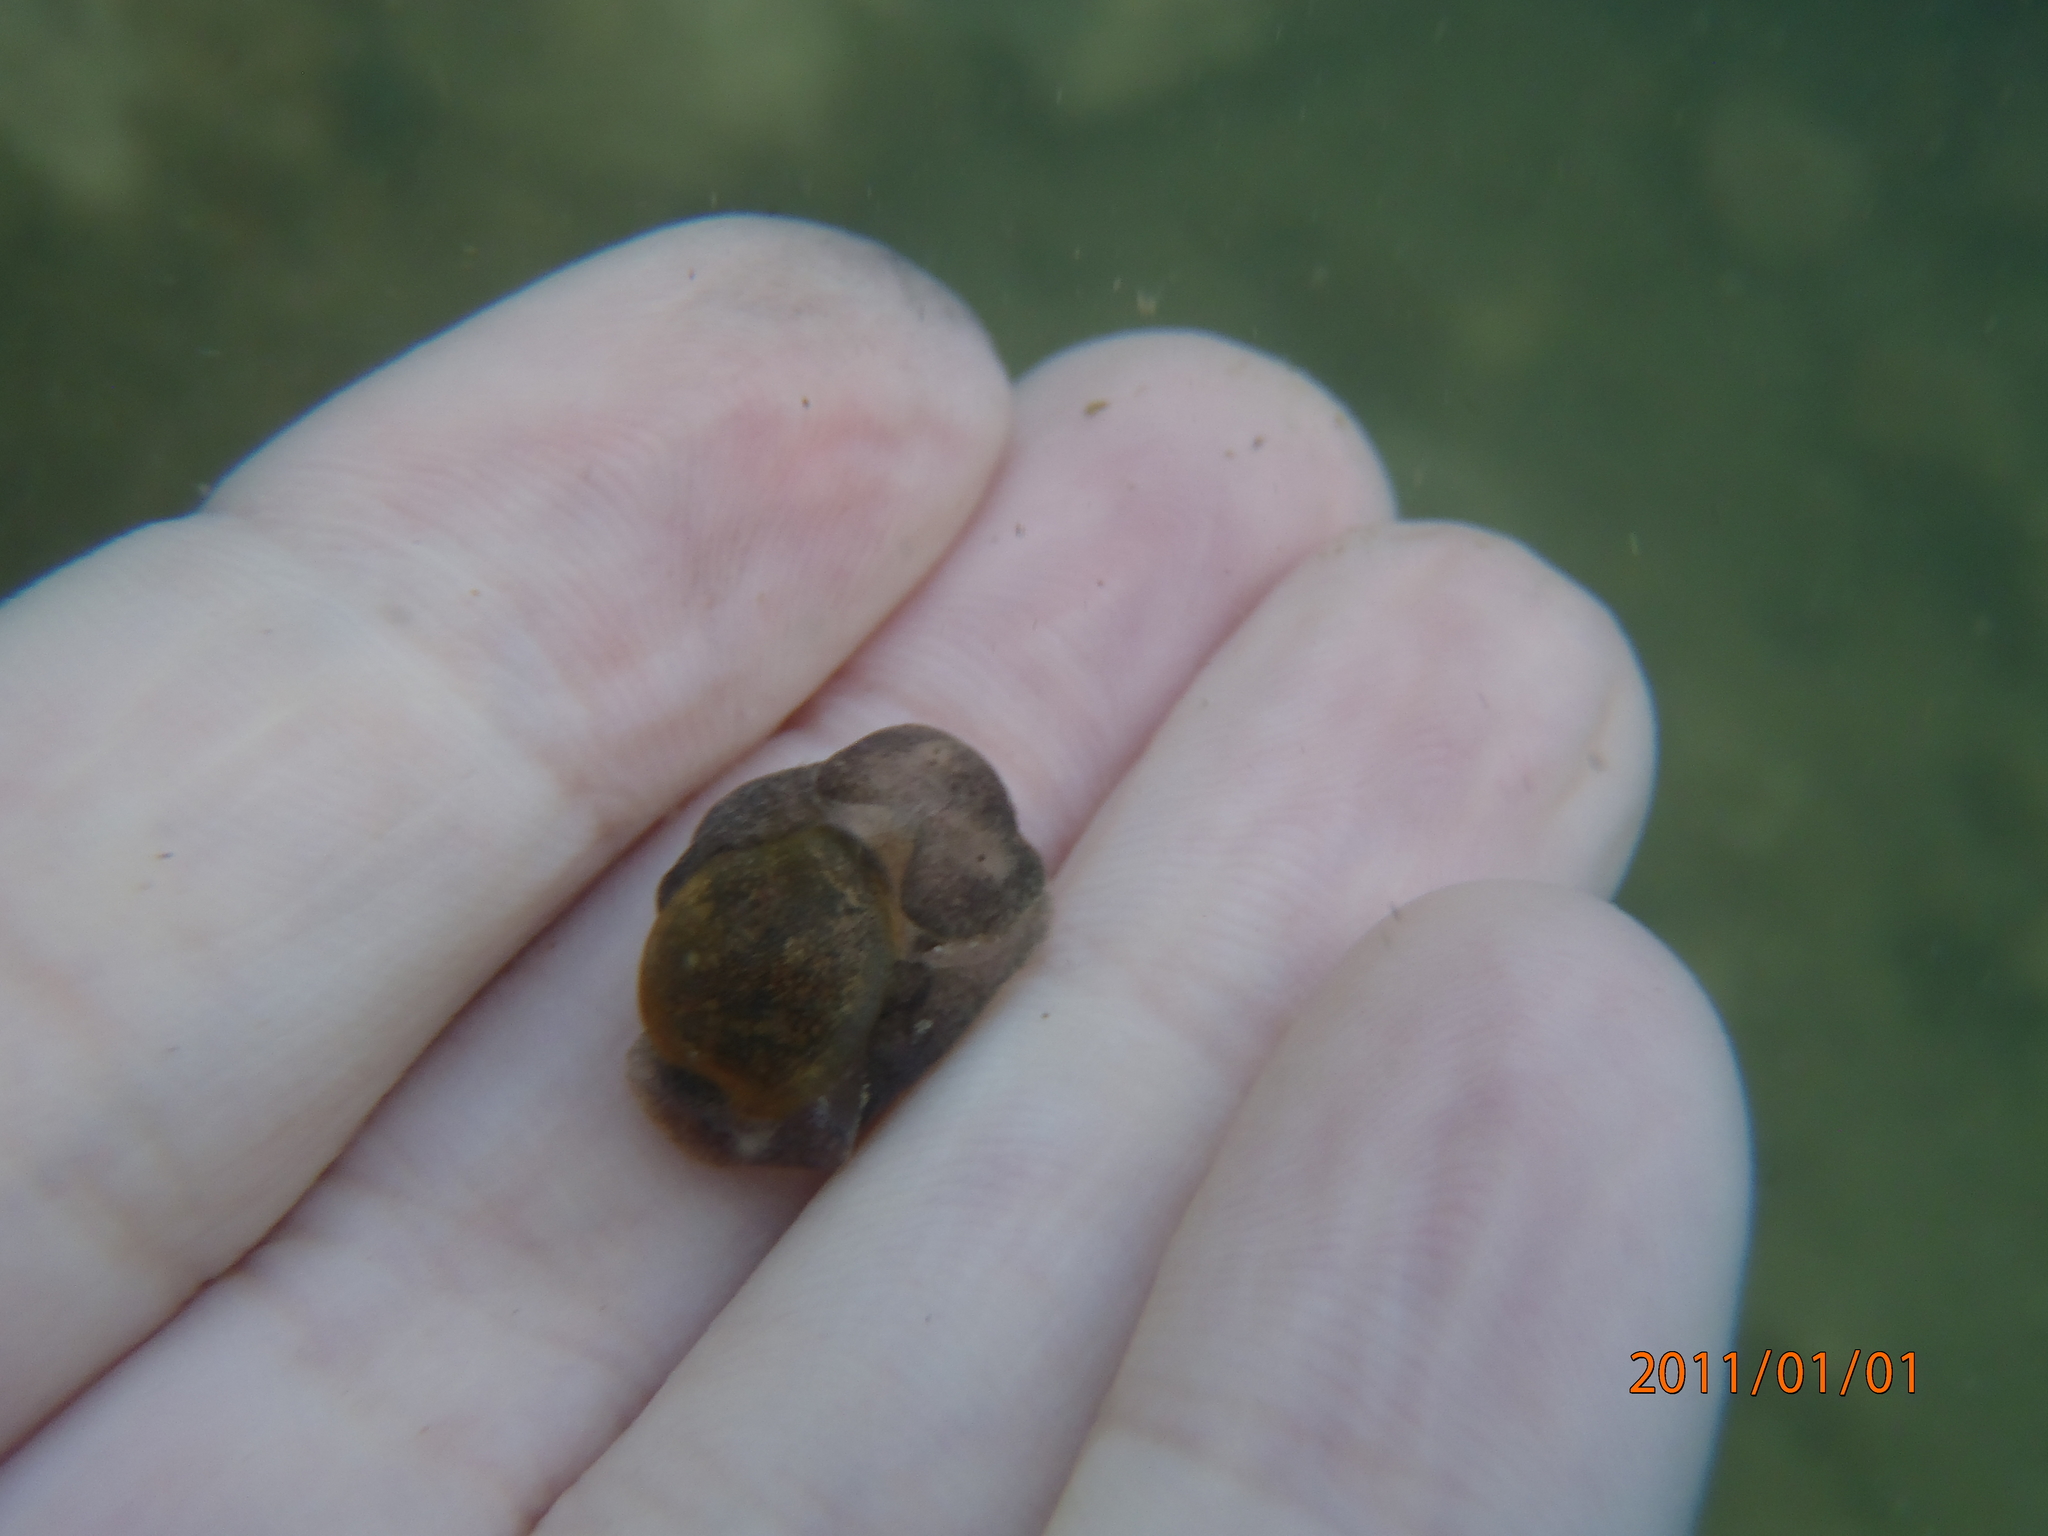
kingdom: Animalia
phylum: Mollusca
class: Gastropoda
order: Cephalaspidea
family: Haminoeidae
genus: Papawera
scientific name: Papawera zelandiae
